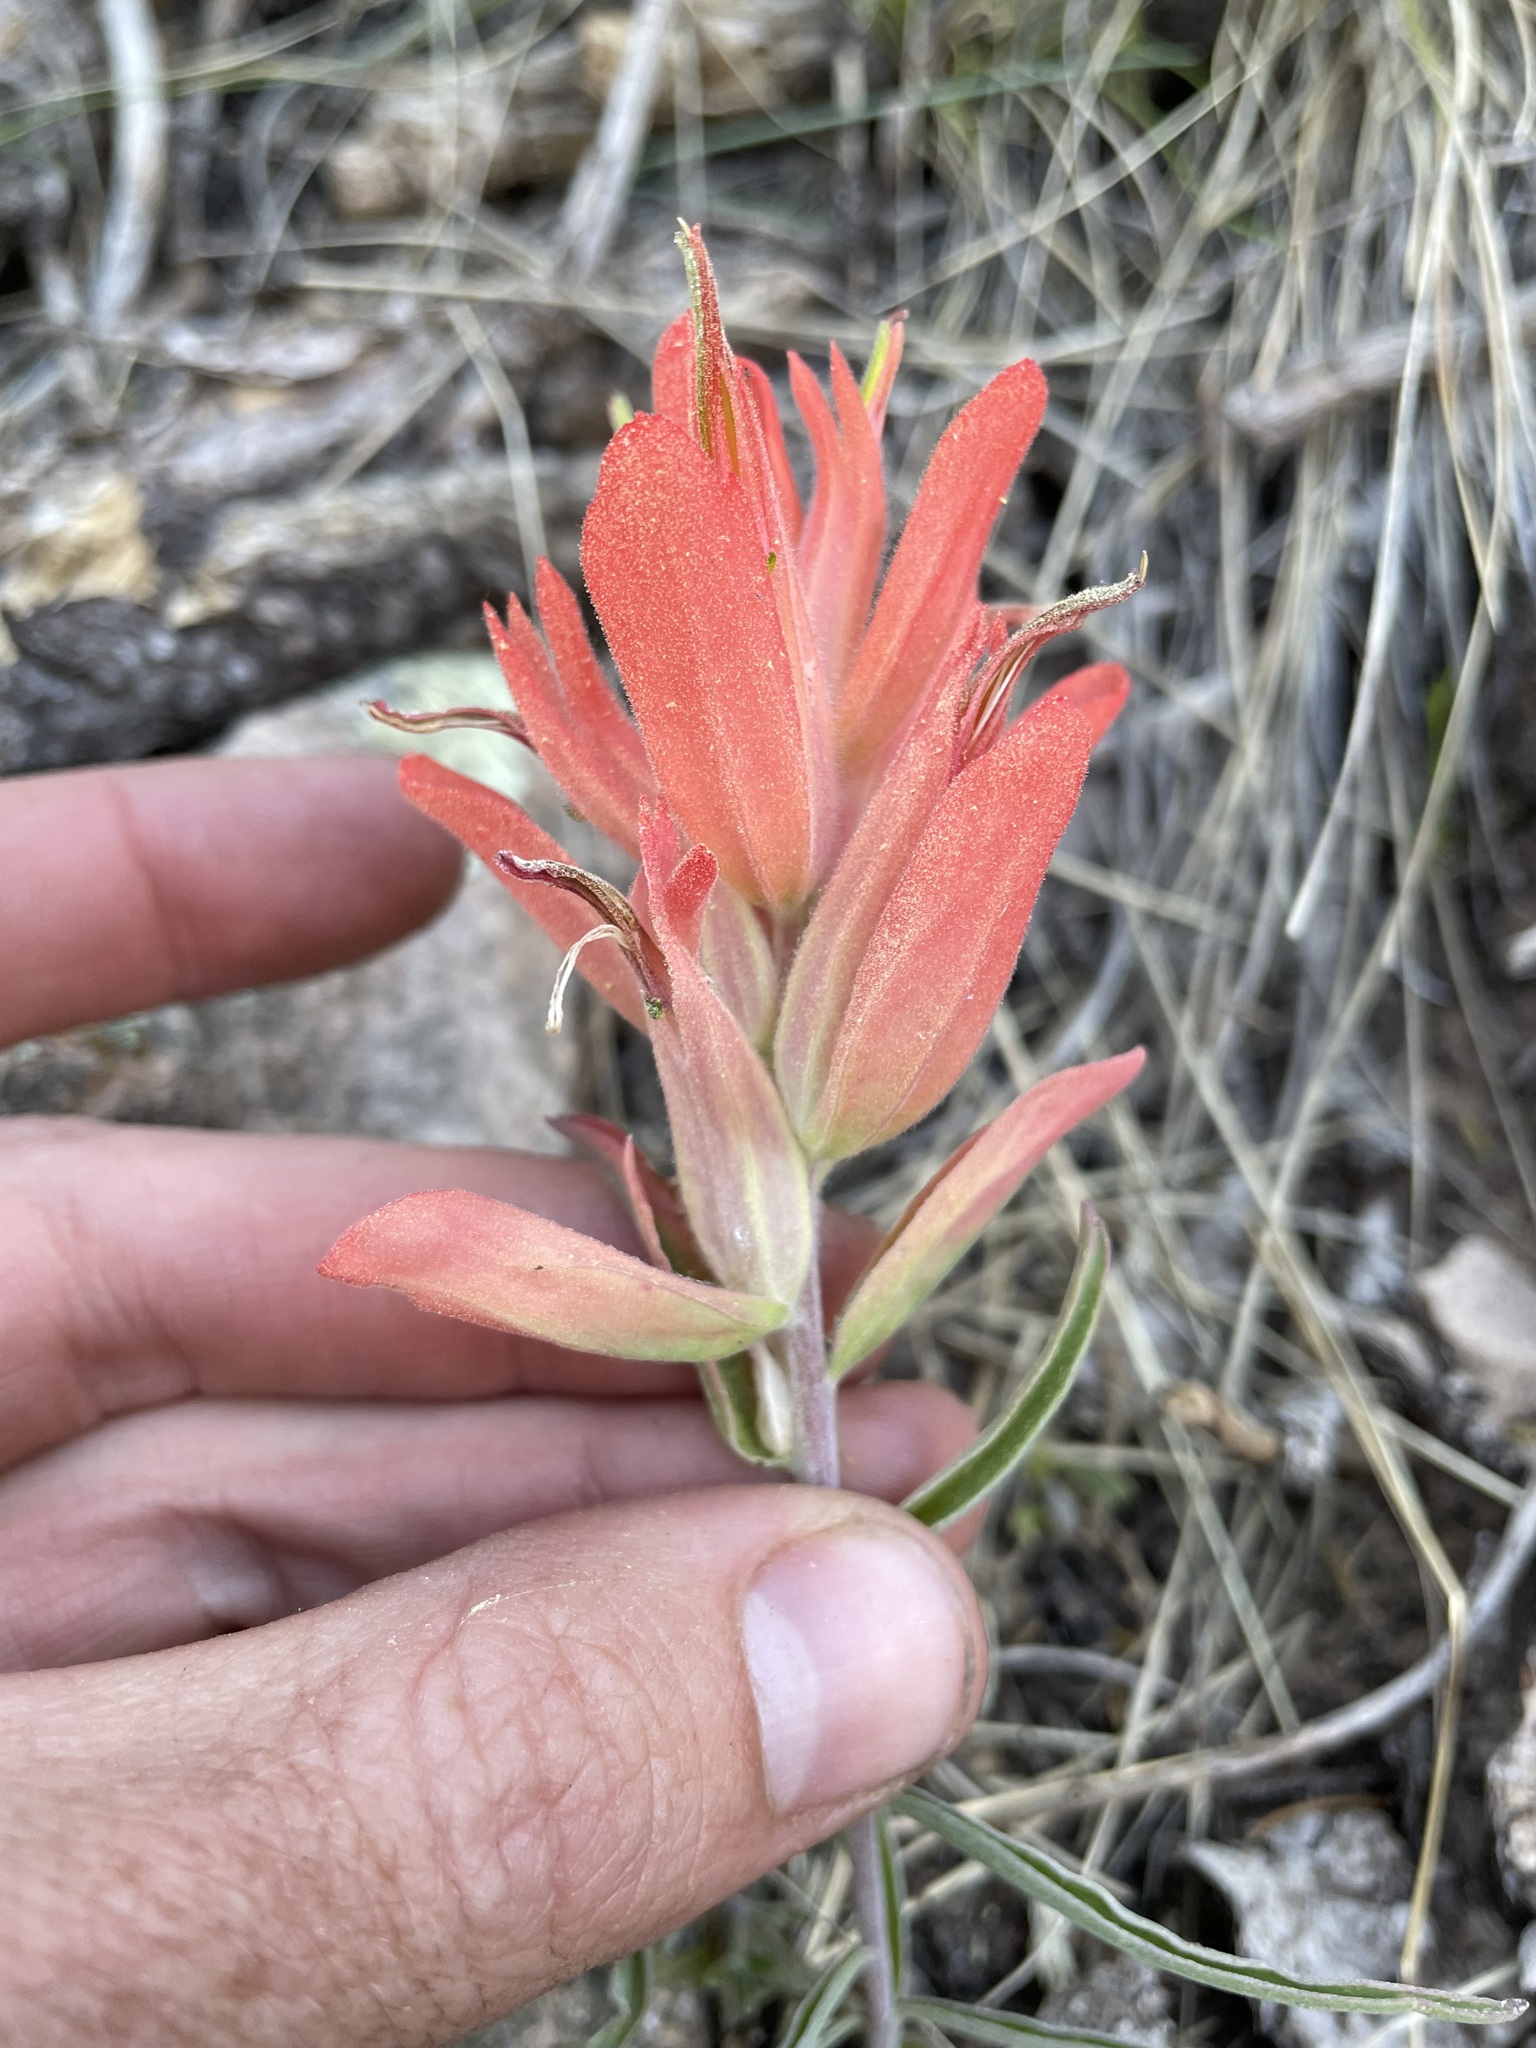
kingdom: Plantae
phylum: Tracheophyta
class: Magnoliopsida
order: Lamiales
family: Orobanchaceae
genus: Castilleja
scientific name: Castilleja integra
